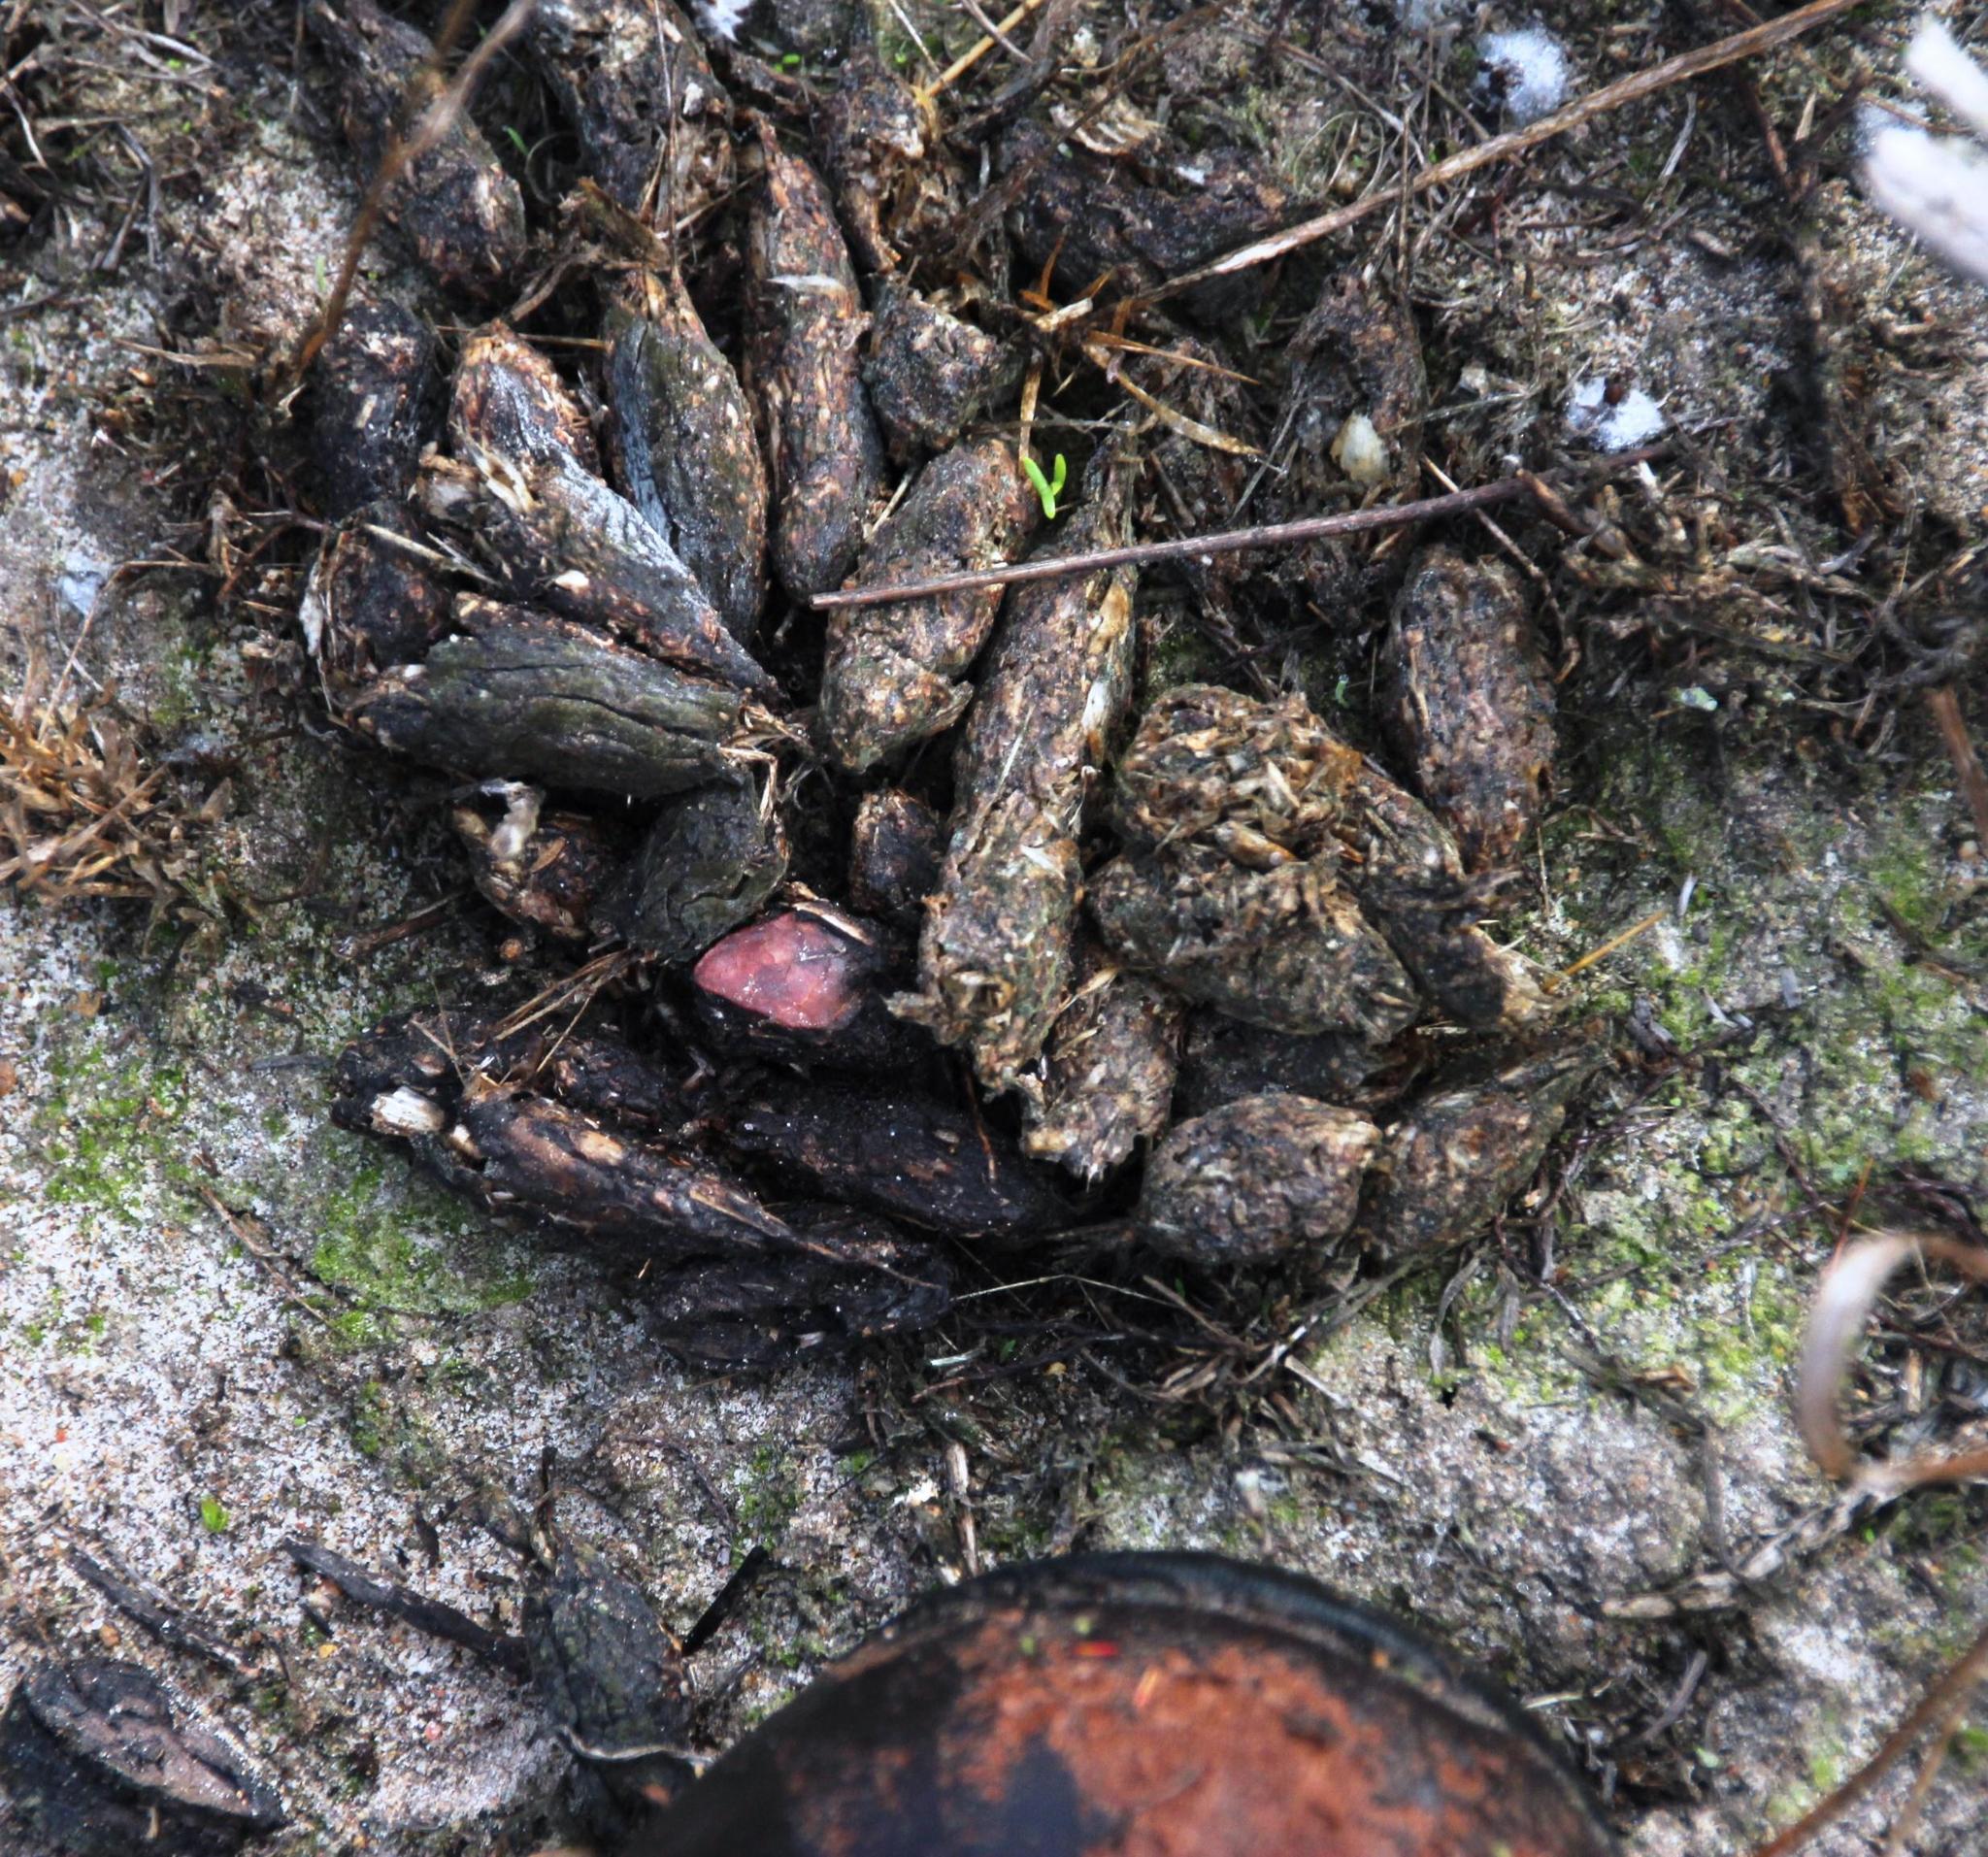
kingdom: Animalia
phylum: Chordata
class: Mammalia
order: Rodentia
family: Hystricidae
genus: Hystrix
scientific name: Hystrix africaeaustralis
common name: Cape porcupine
